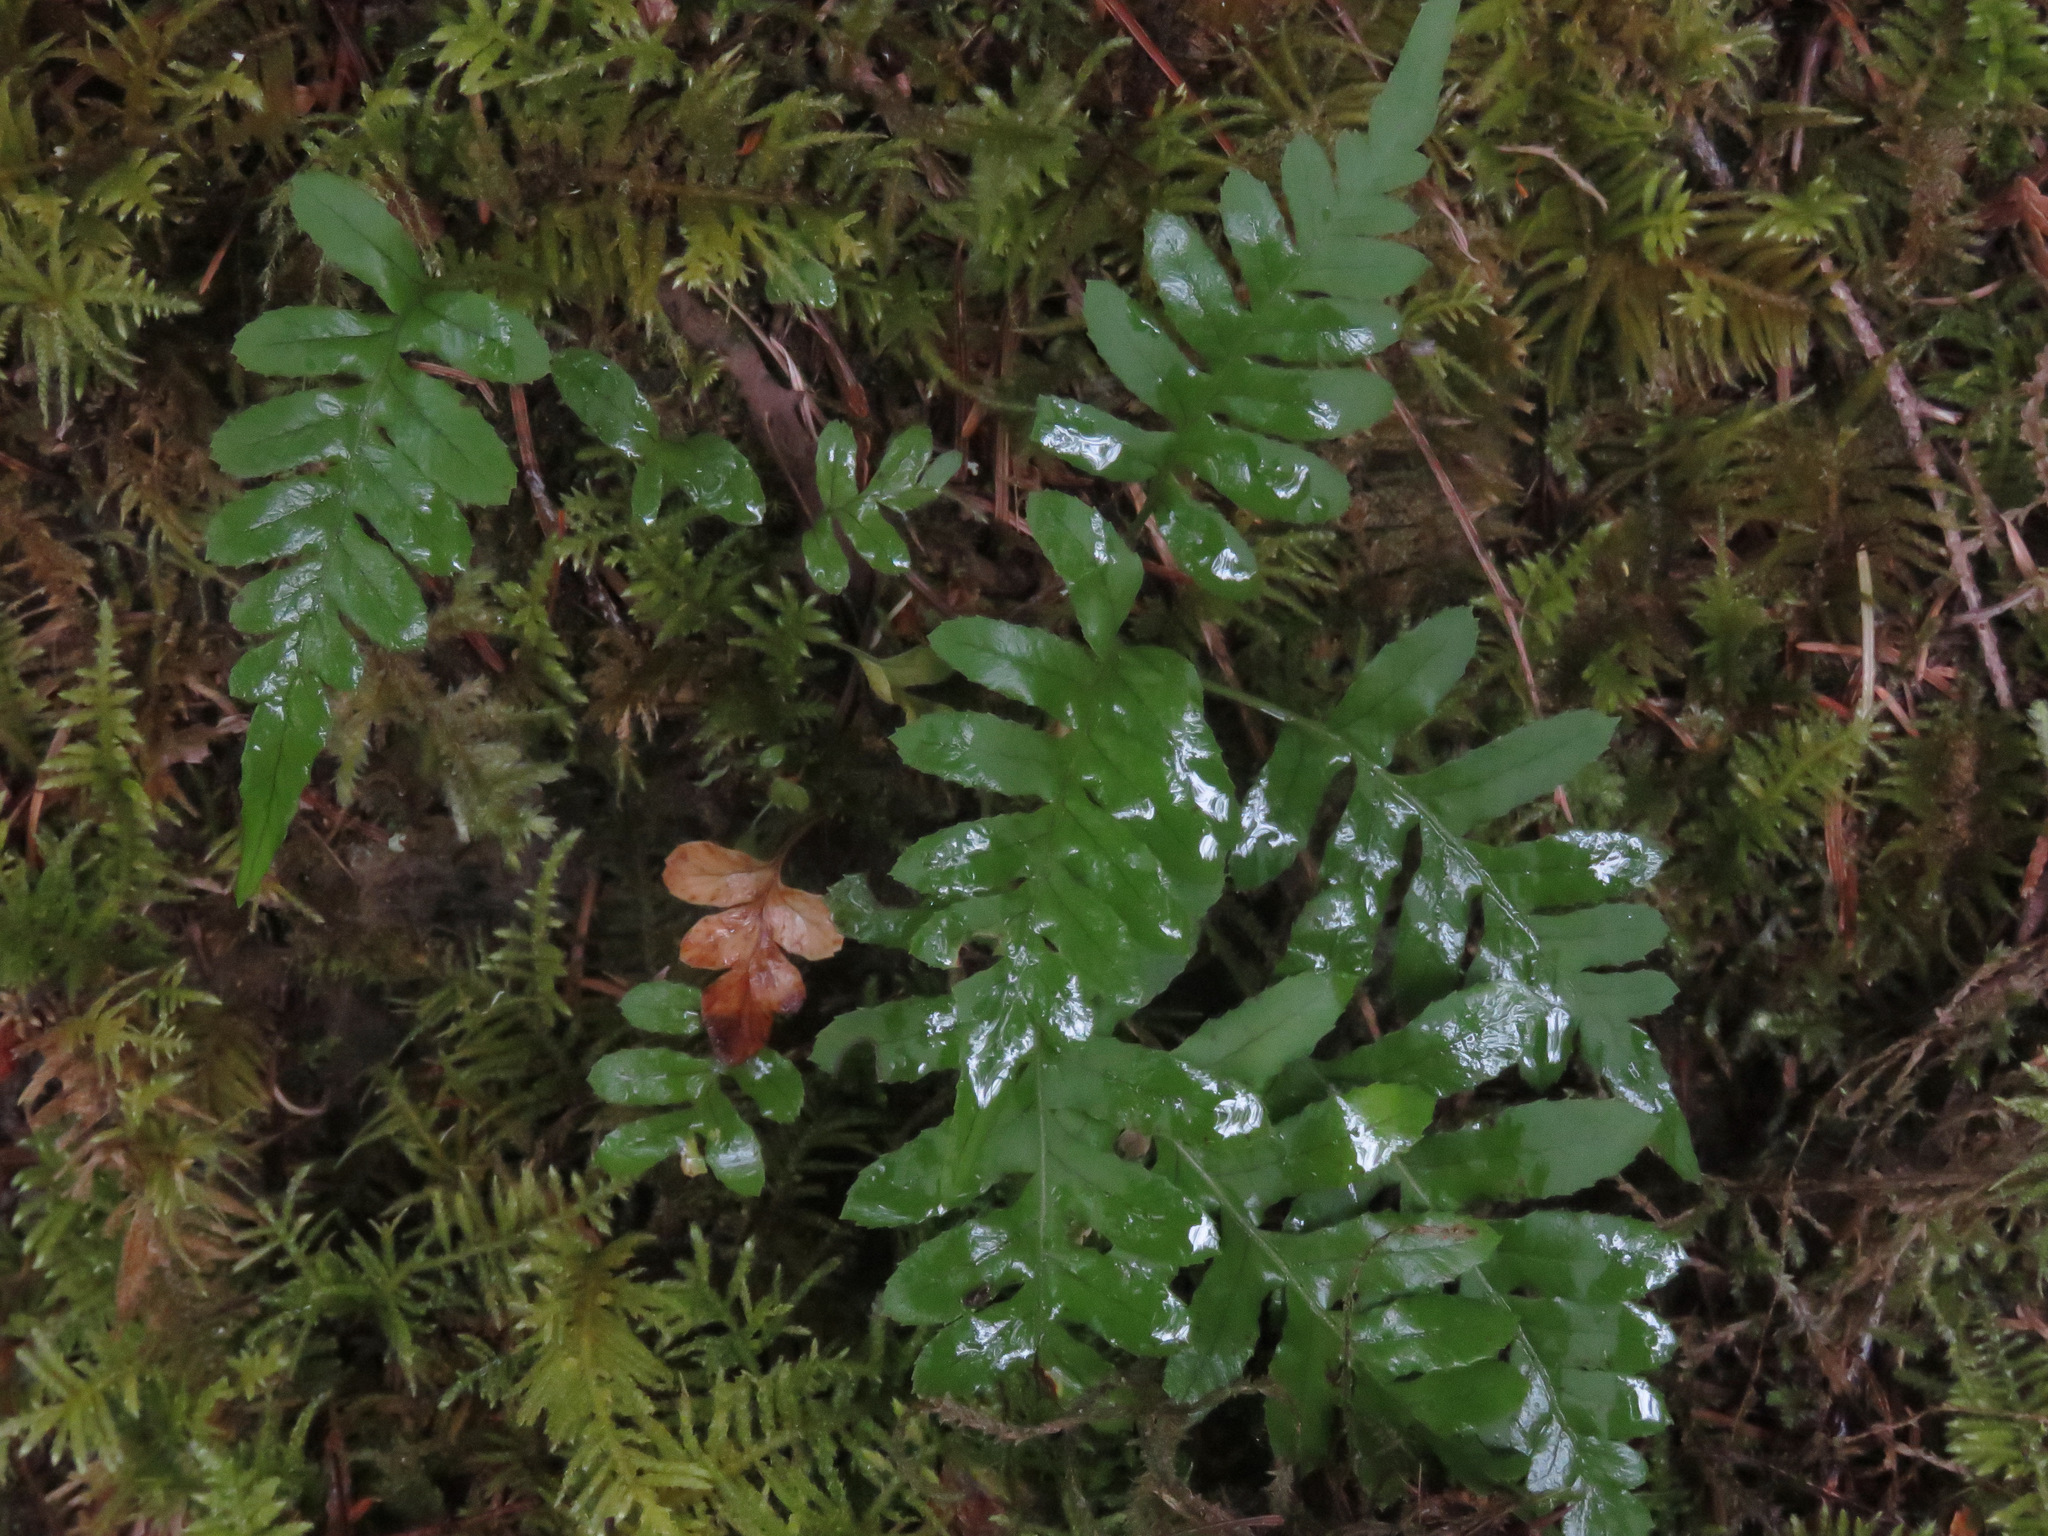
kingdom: Plantae
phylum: Tracheophyta
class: Polypodiopsida
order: Polypodiales
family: Polypodiaceae
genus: Polypodium
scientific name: Polypodium glycyrrhiza
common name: Licorice fern
